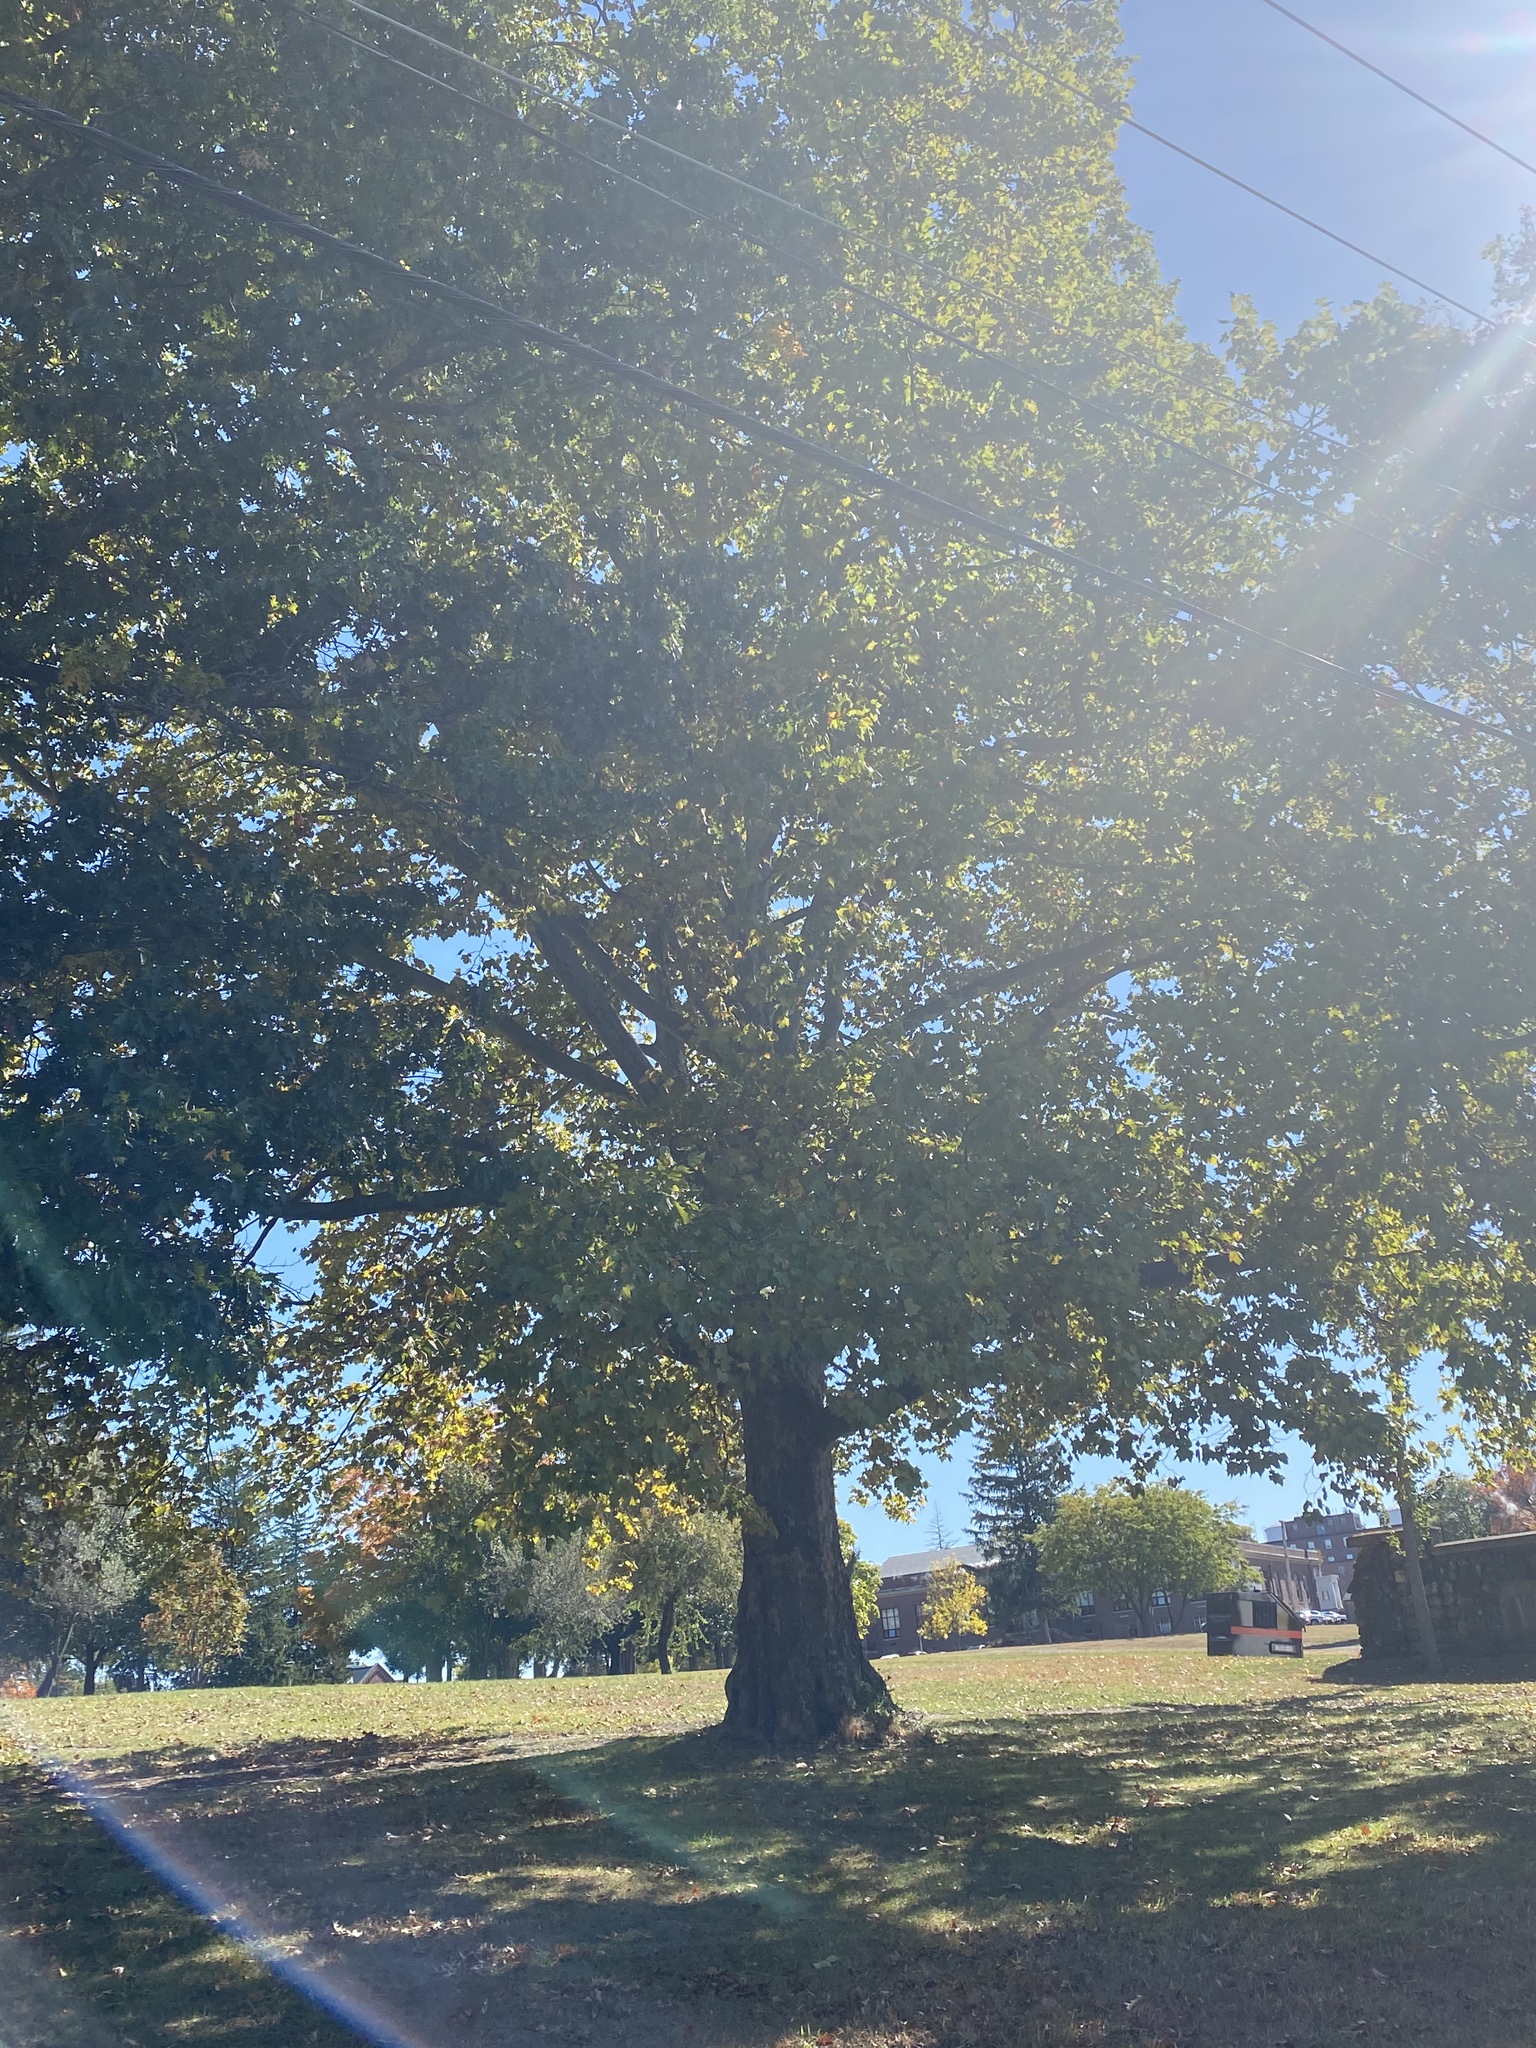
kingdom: Plantae
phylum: Tracheophyta
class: Magnoliopsida
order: Proteales
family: Platanaceae
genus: Platanus
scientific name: Platanus occidentalis
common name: American sycamore
